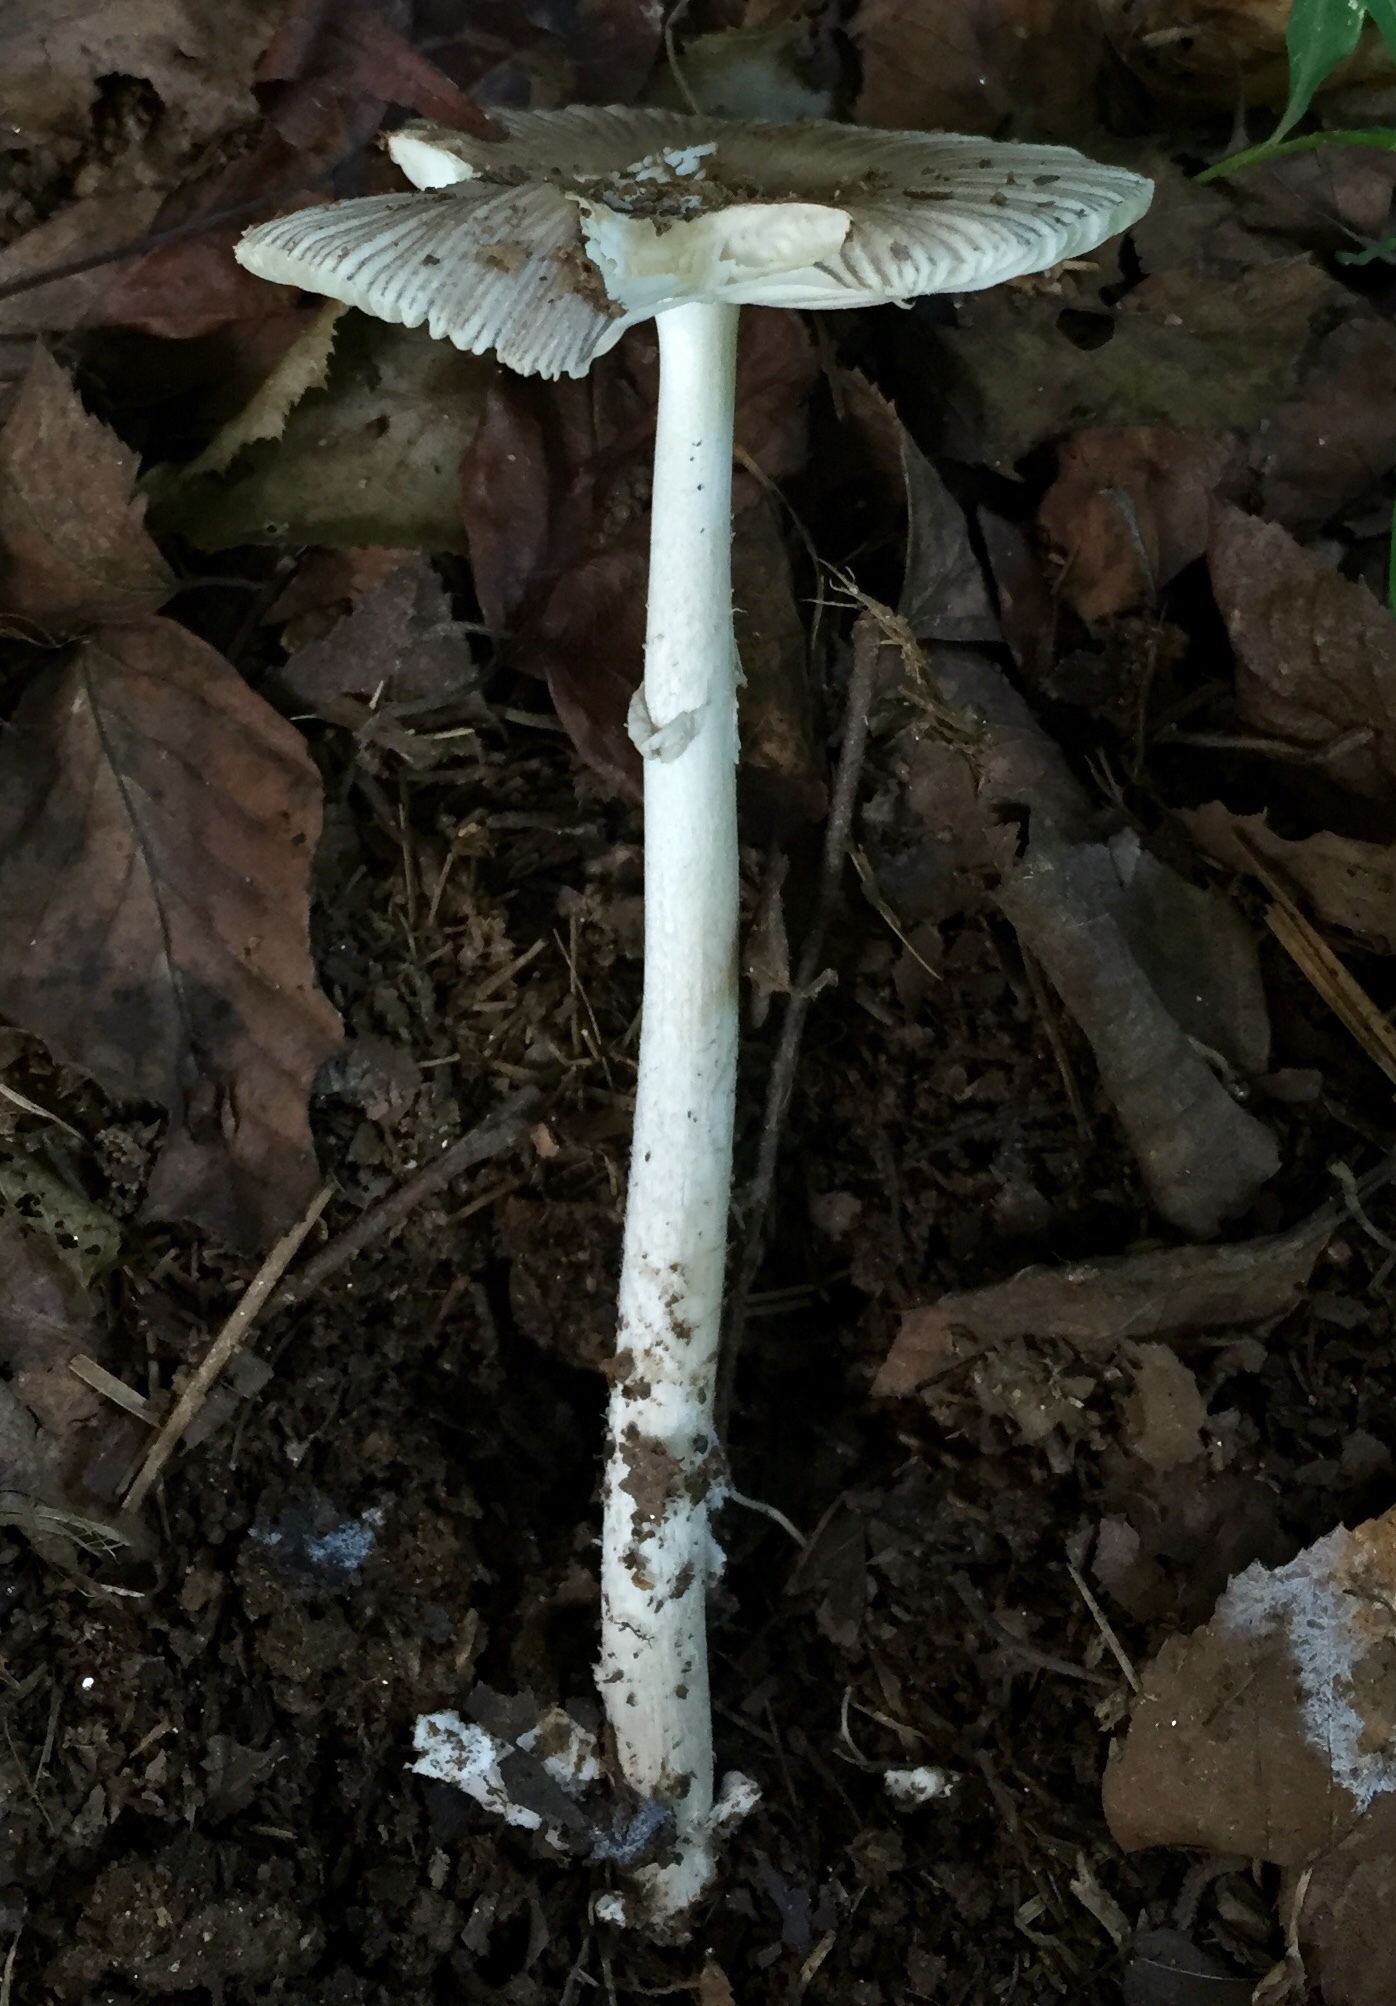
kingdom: Fungi
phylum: Basidiomycota
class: Agaricomycetes
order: Agaricales
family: Amanitaceae
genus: Amanita
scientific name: Amanita vaginata
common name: Grisette
